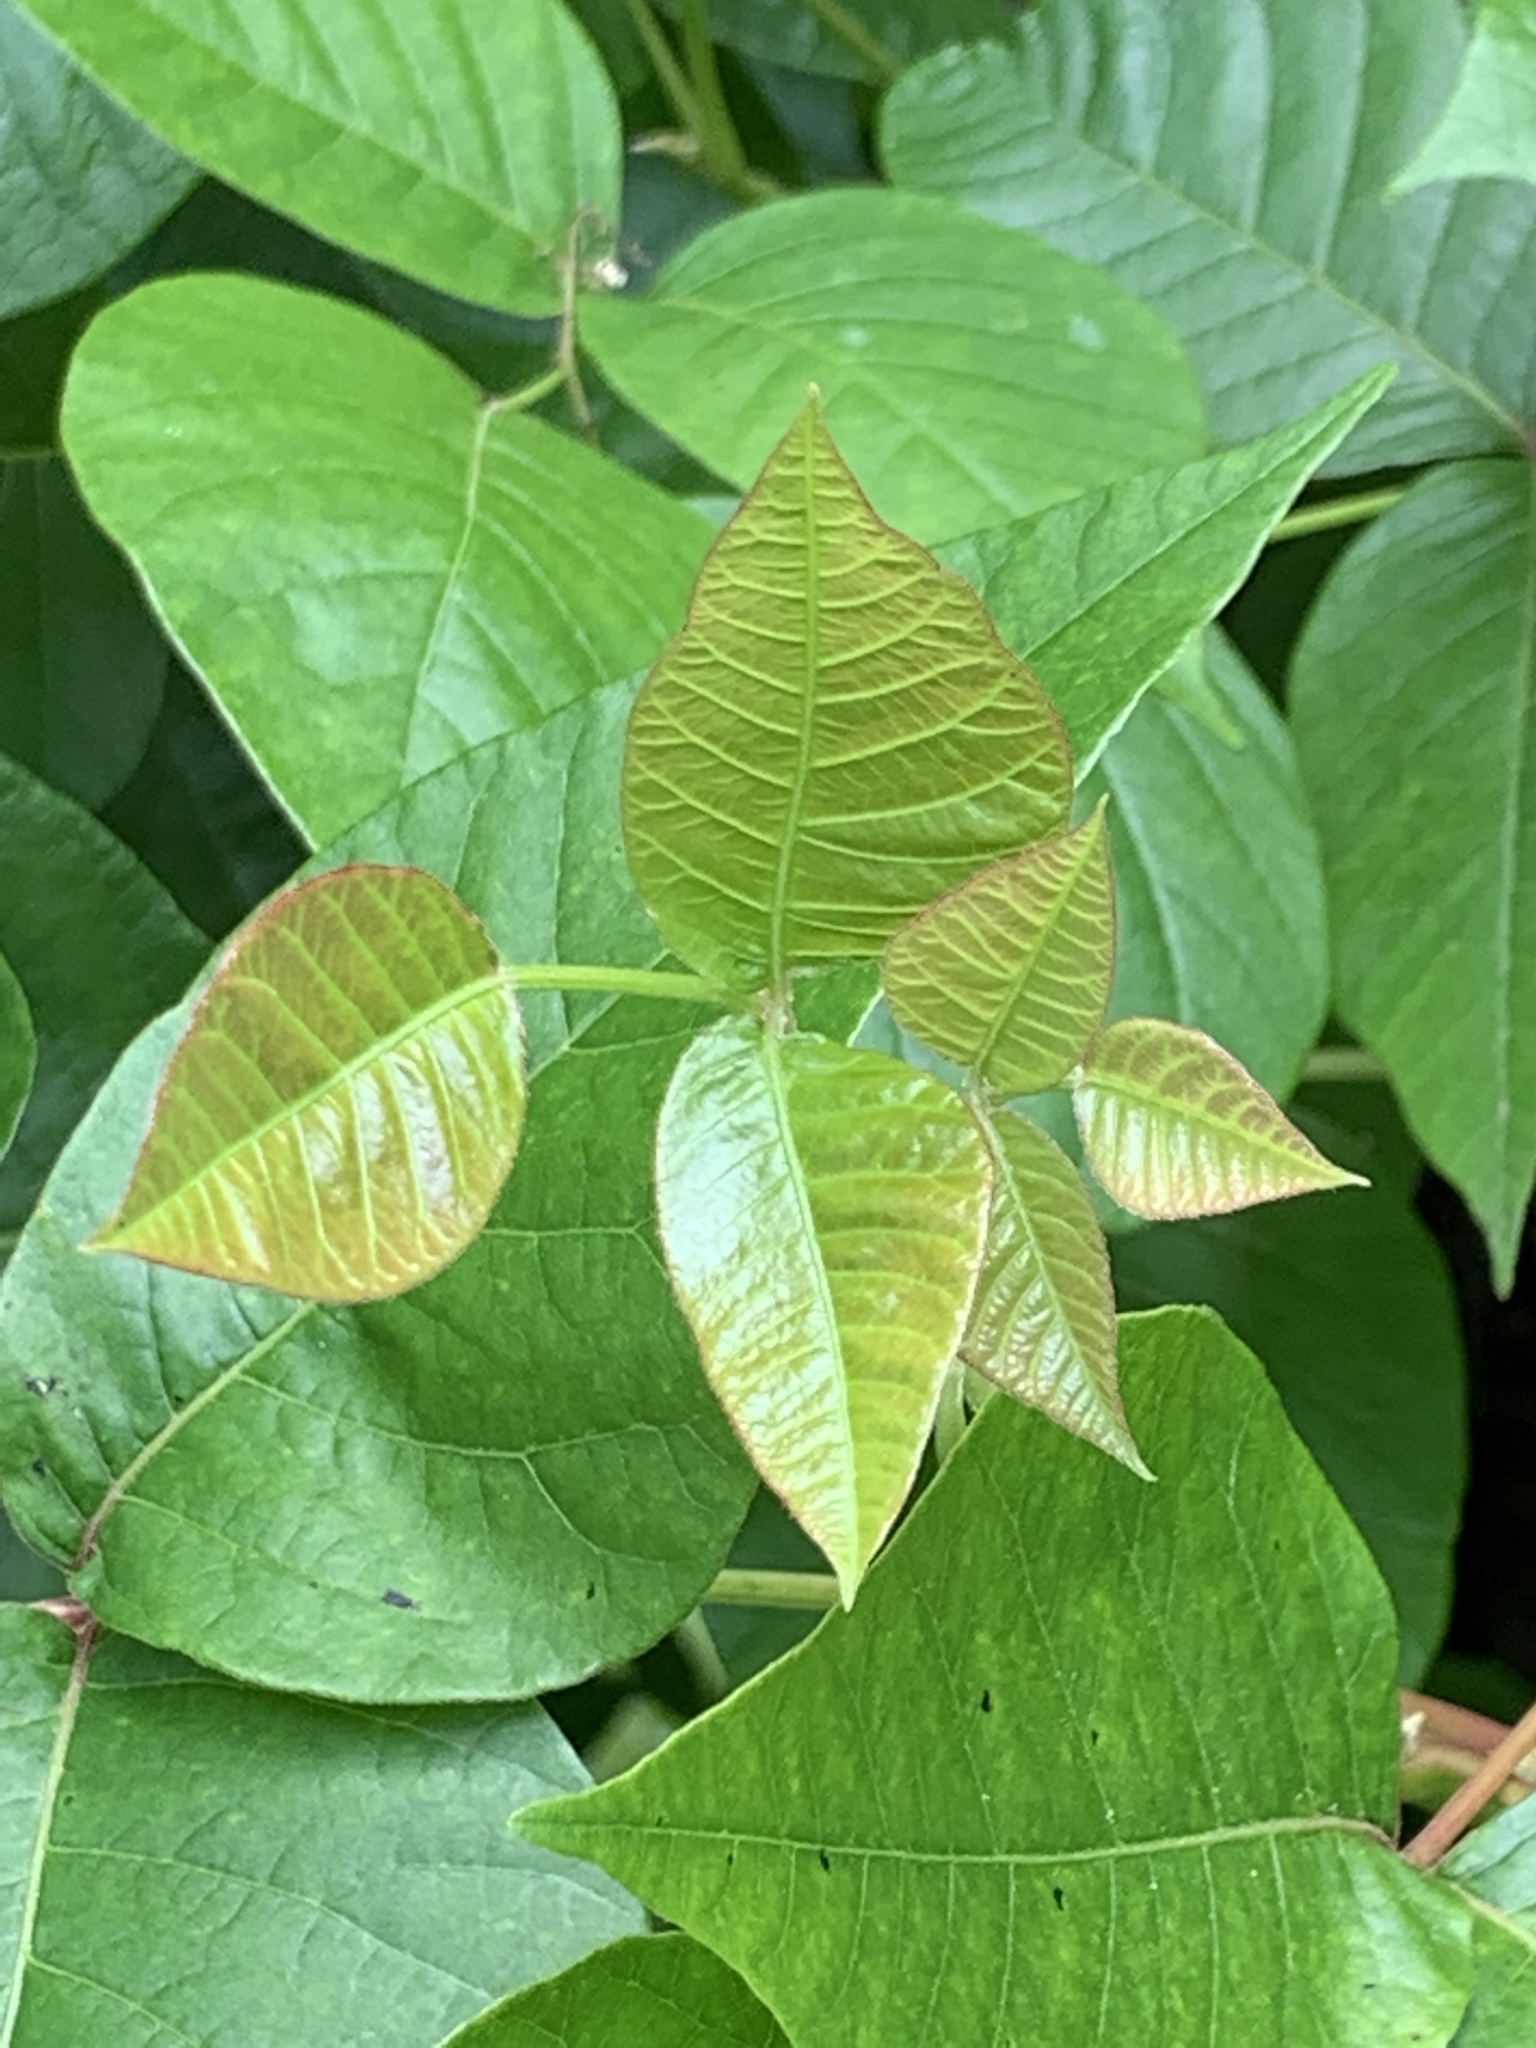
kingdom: Plantae
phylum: Tracheophyta
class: Magnoliopsida
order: Sapindales
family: Anacardiaceae
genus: Toxicodendron
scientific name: Toxicodendron radicans
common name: Poison ivy
